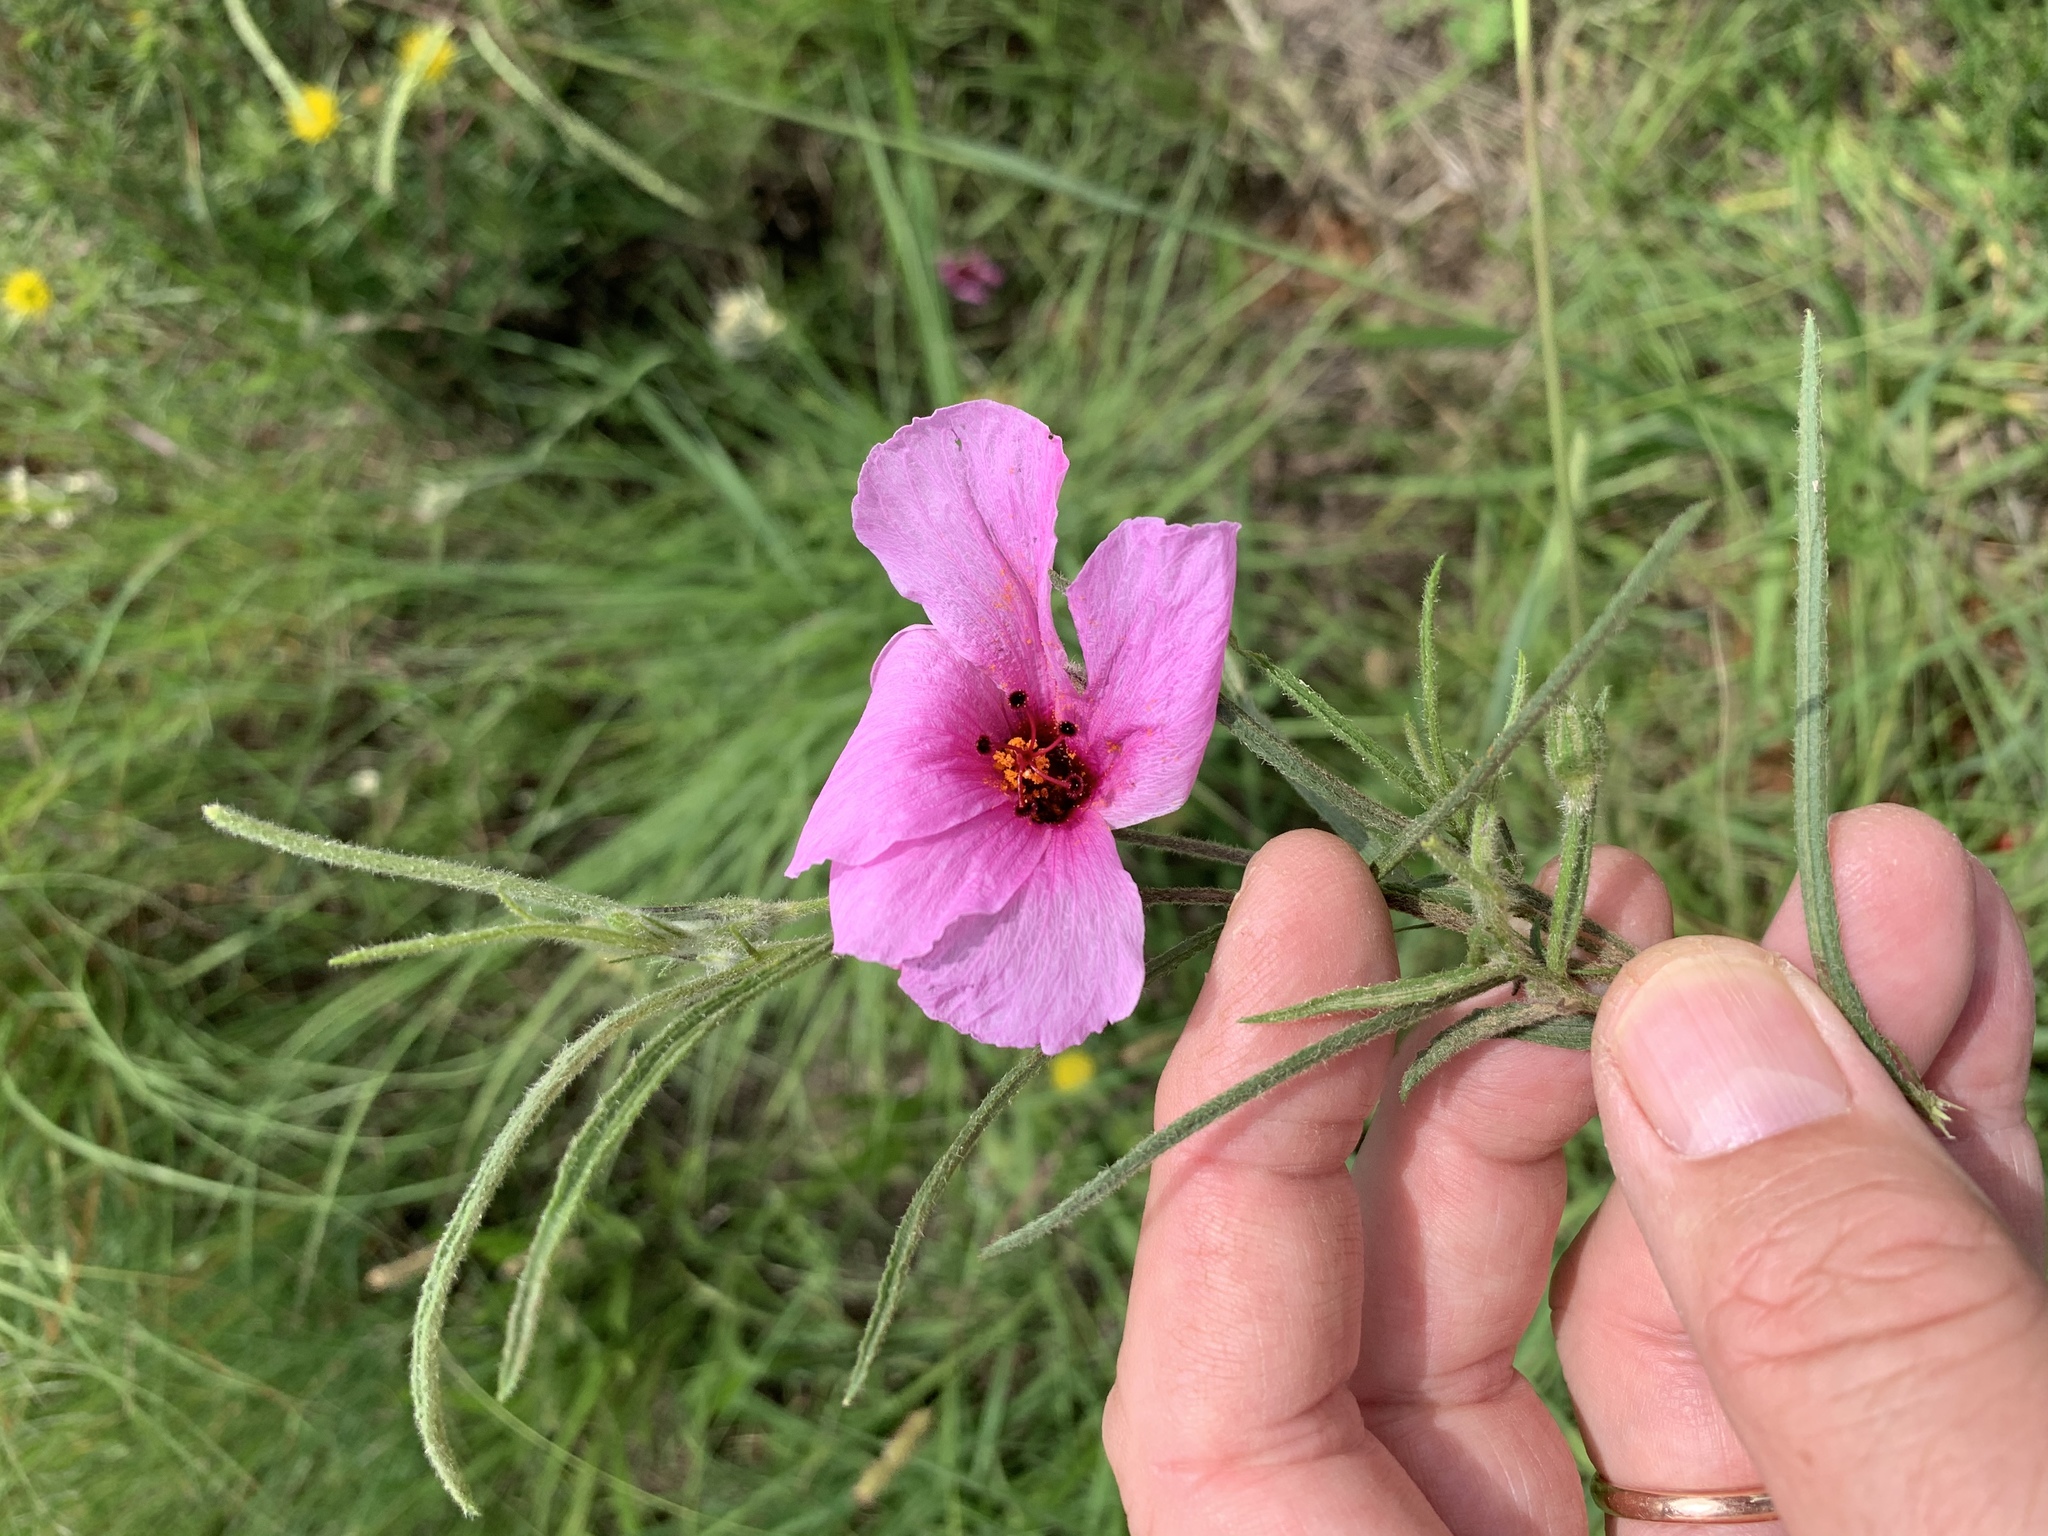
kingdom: Plantae
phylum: Tracheophyta
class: Magnoliopsida
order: Malvales
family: Malvaceae
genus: Hibiscus
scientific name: Hibiscus malacospermus
